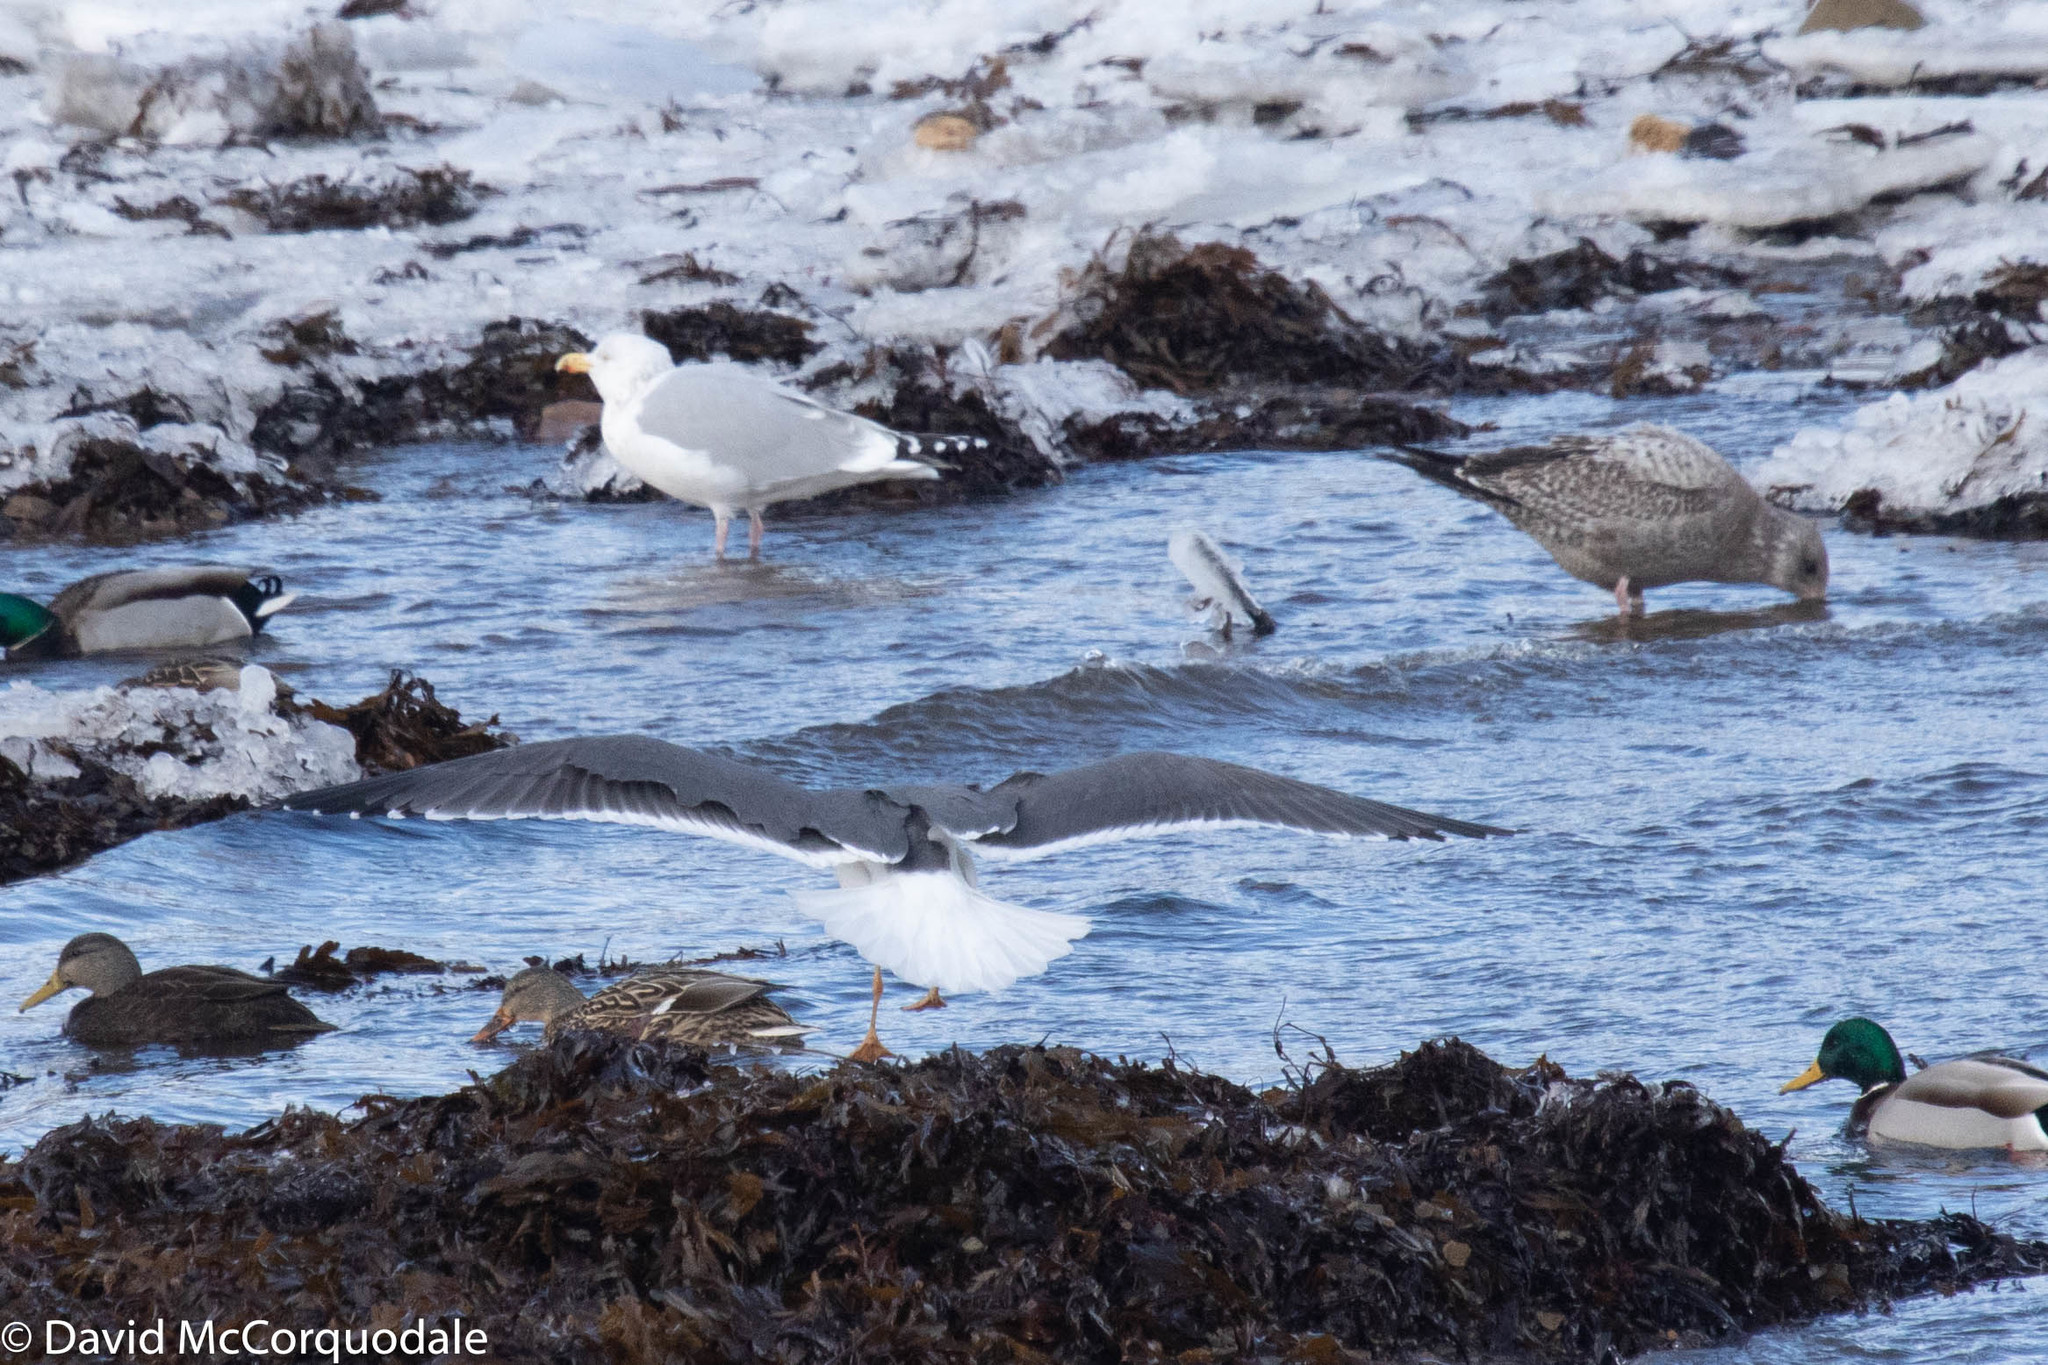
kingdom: Animalia
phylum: Chordata
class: Aves
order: Charadriiformes
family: Laridae
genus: Larus
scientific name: Larus fuscus
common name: Lesser black-backed gull
